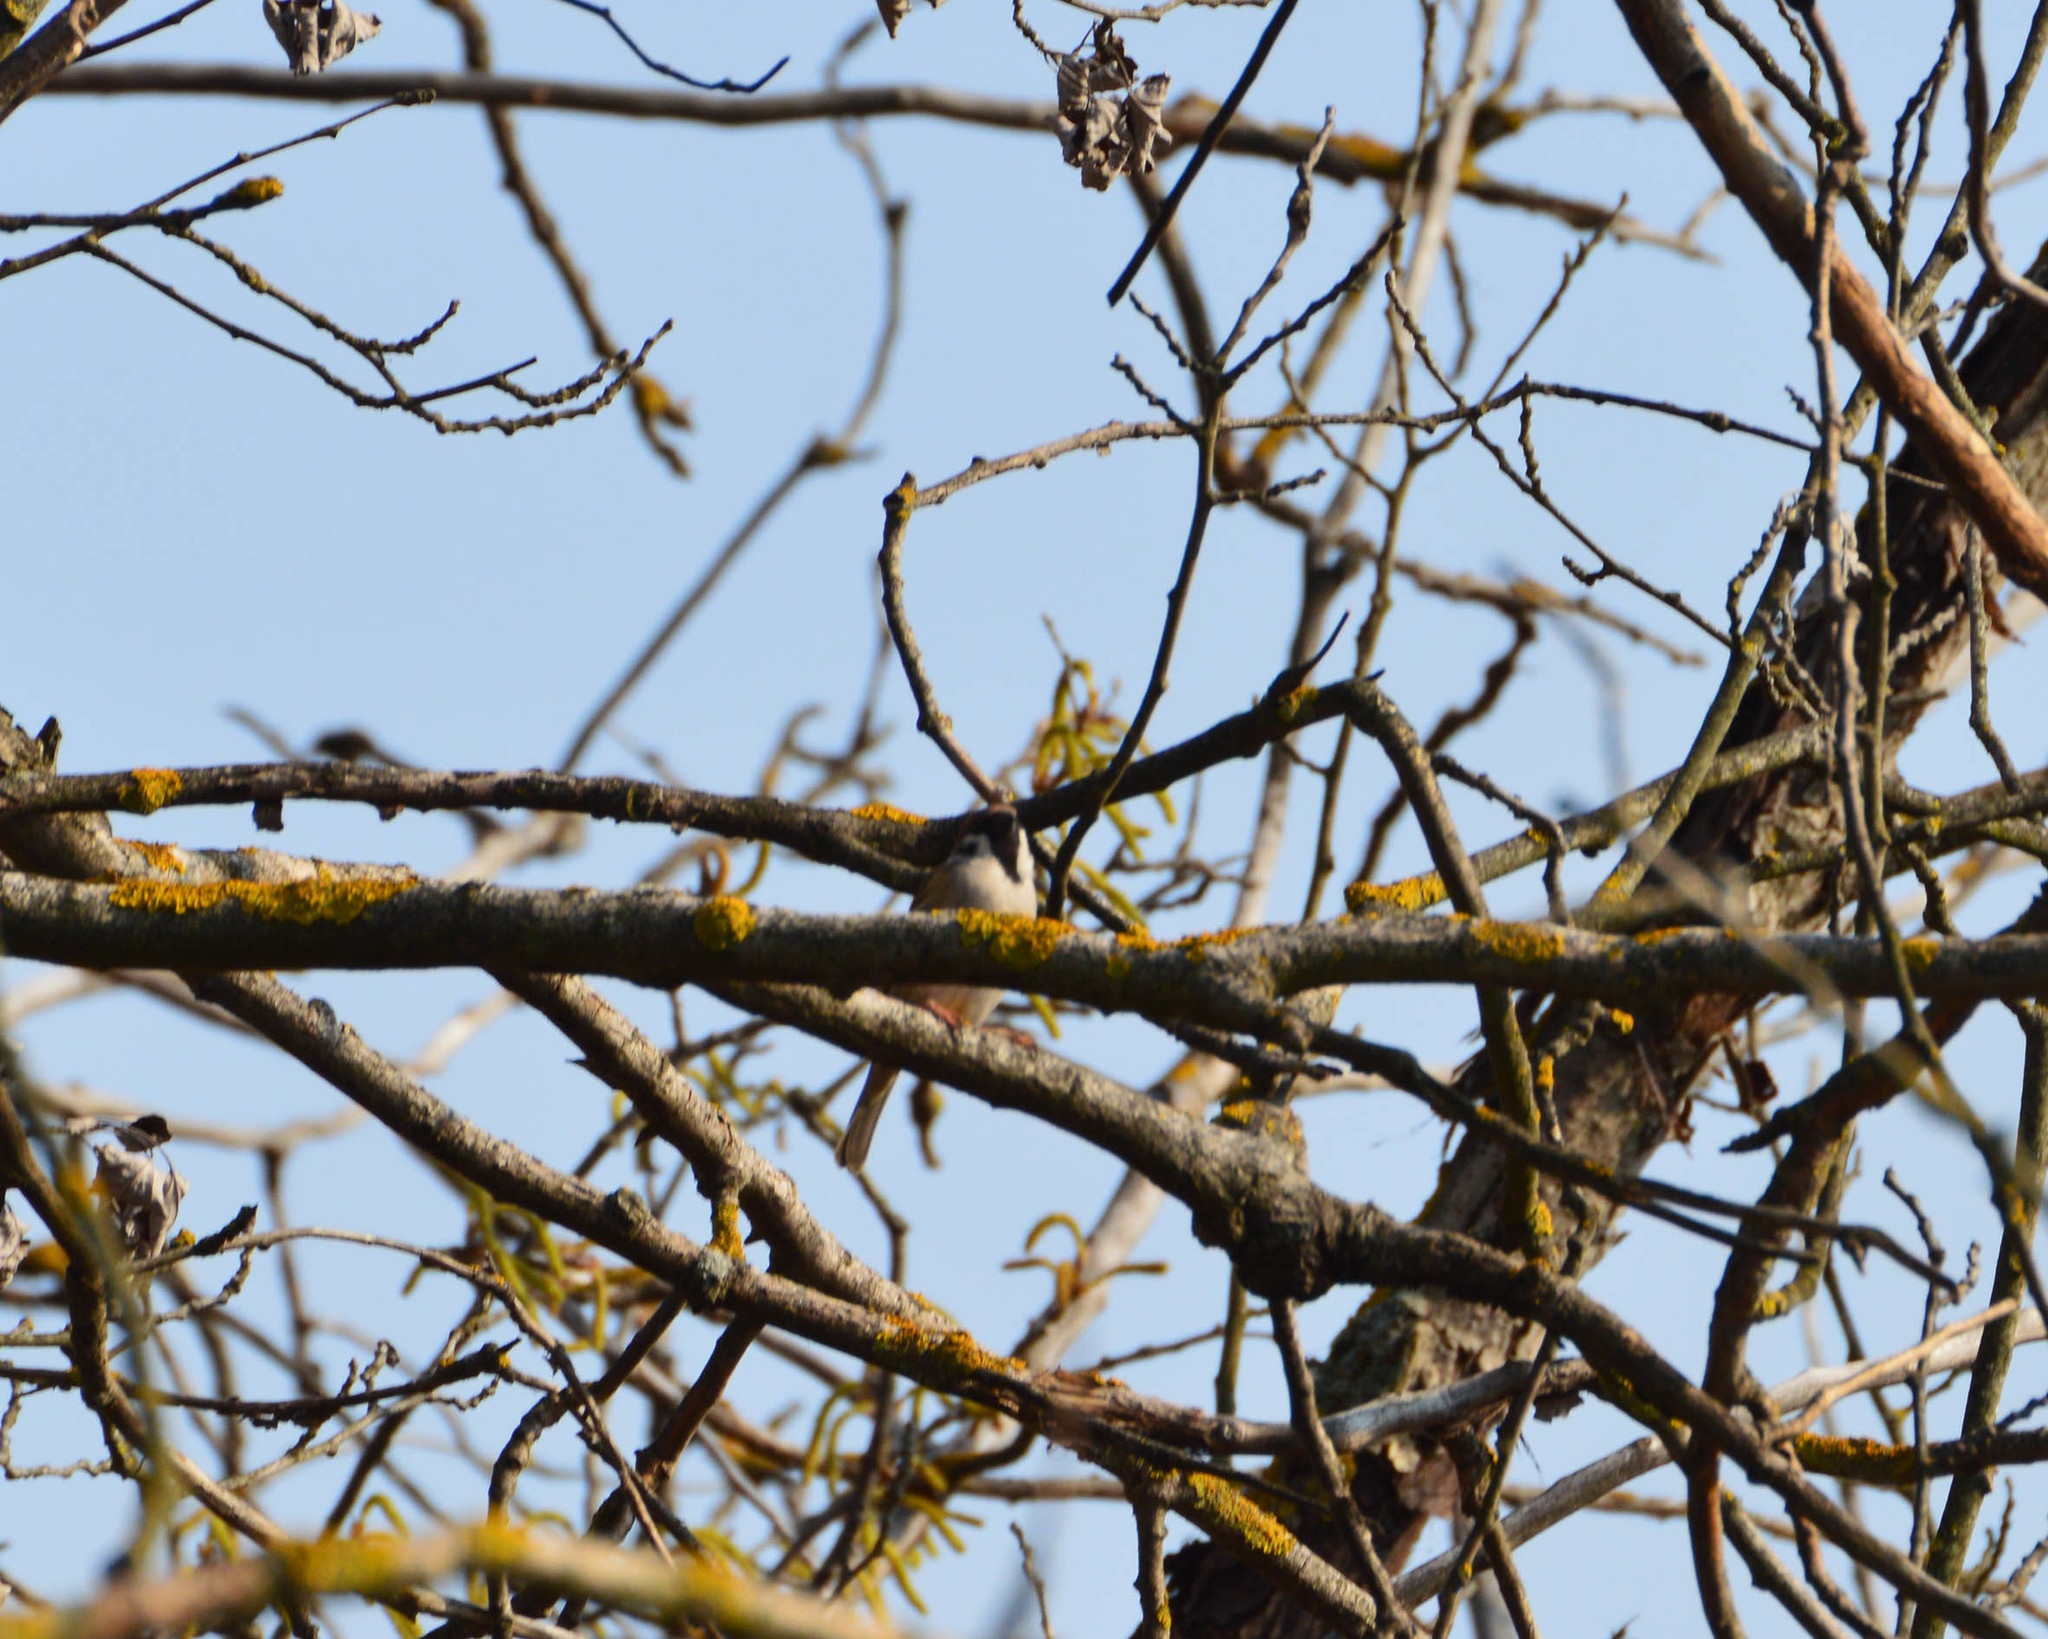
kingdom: Animalia
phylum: Chordata
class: Aves
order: Passeriformes
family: Passeridae
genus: Passer
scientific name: Passer montanus
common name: Eurasian tree sparrow
